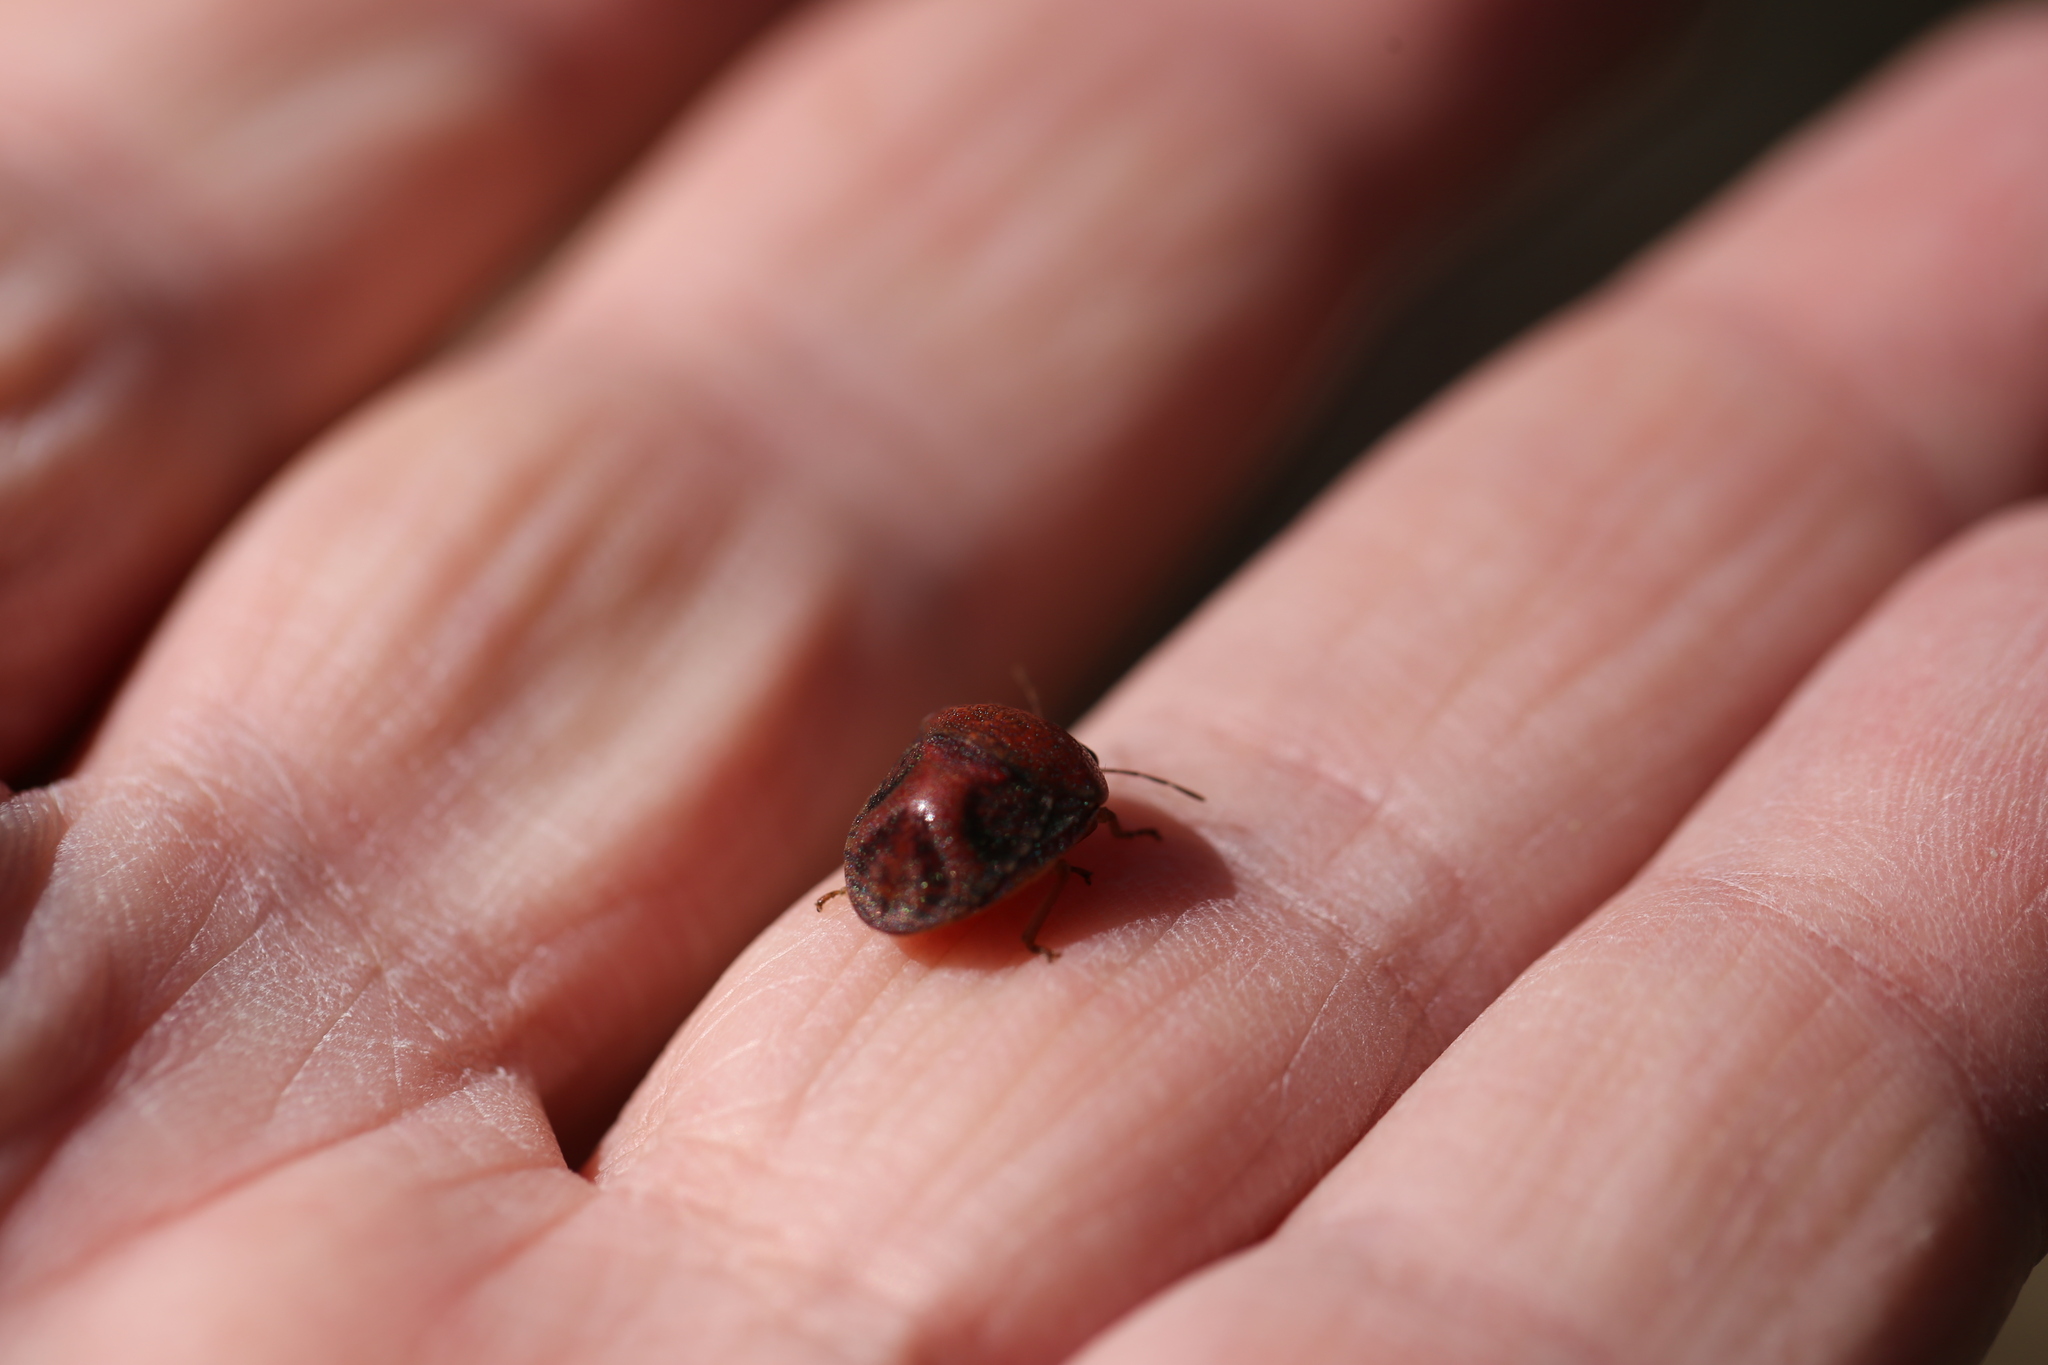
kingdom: Animalia
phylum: Arthropoda
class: Insecta
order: Hemiptera
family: Scutelleridae
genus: Solenotichus
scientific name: Solenotichus
